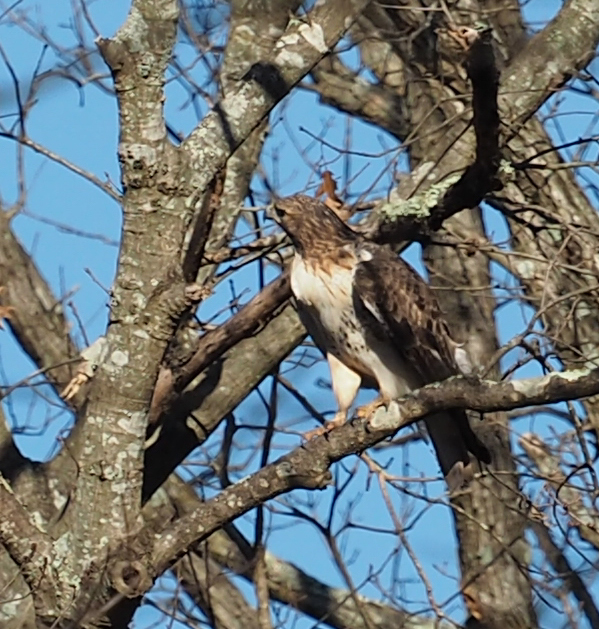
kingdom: Animalia
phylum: Chordata
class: Aves
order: Accipitriformes
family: Accipitridae
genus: Buteo
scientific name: Buteo jamaicensis
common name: Red-tailed hawk
